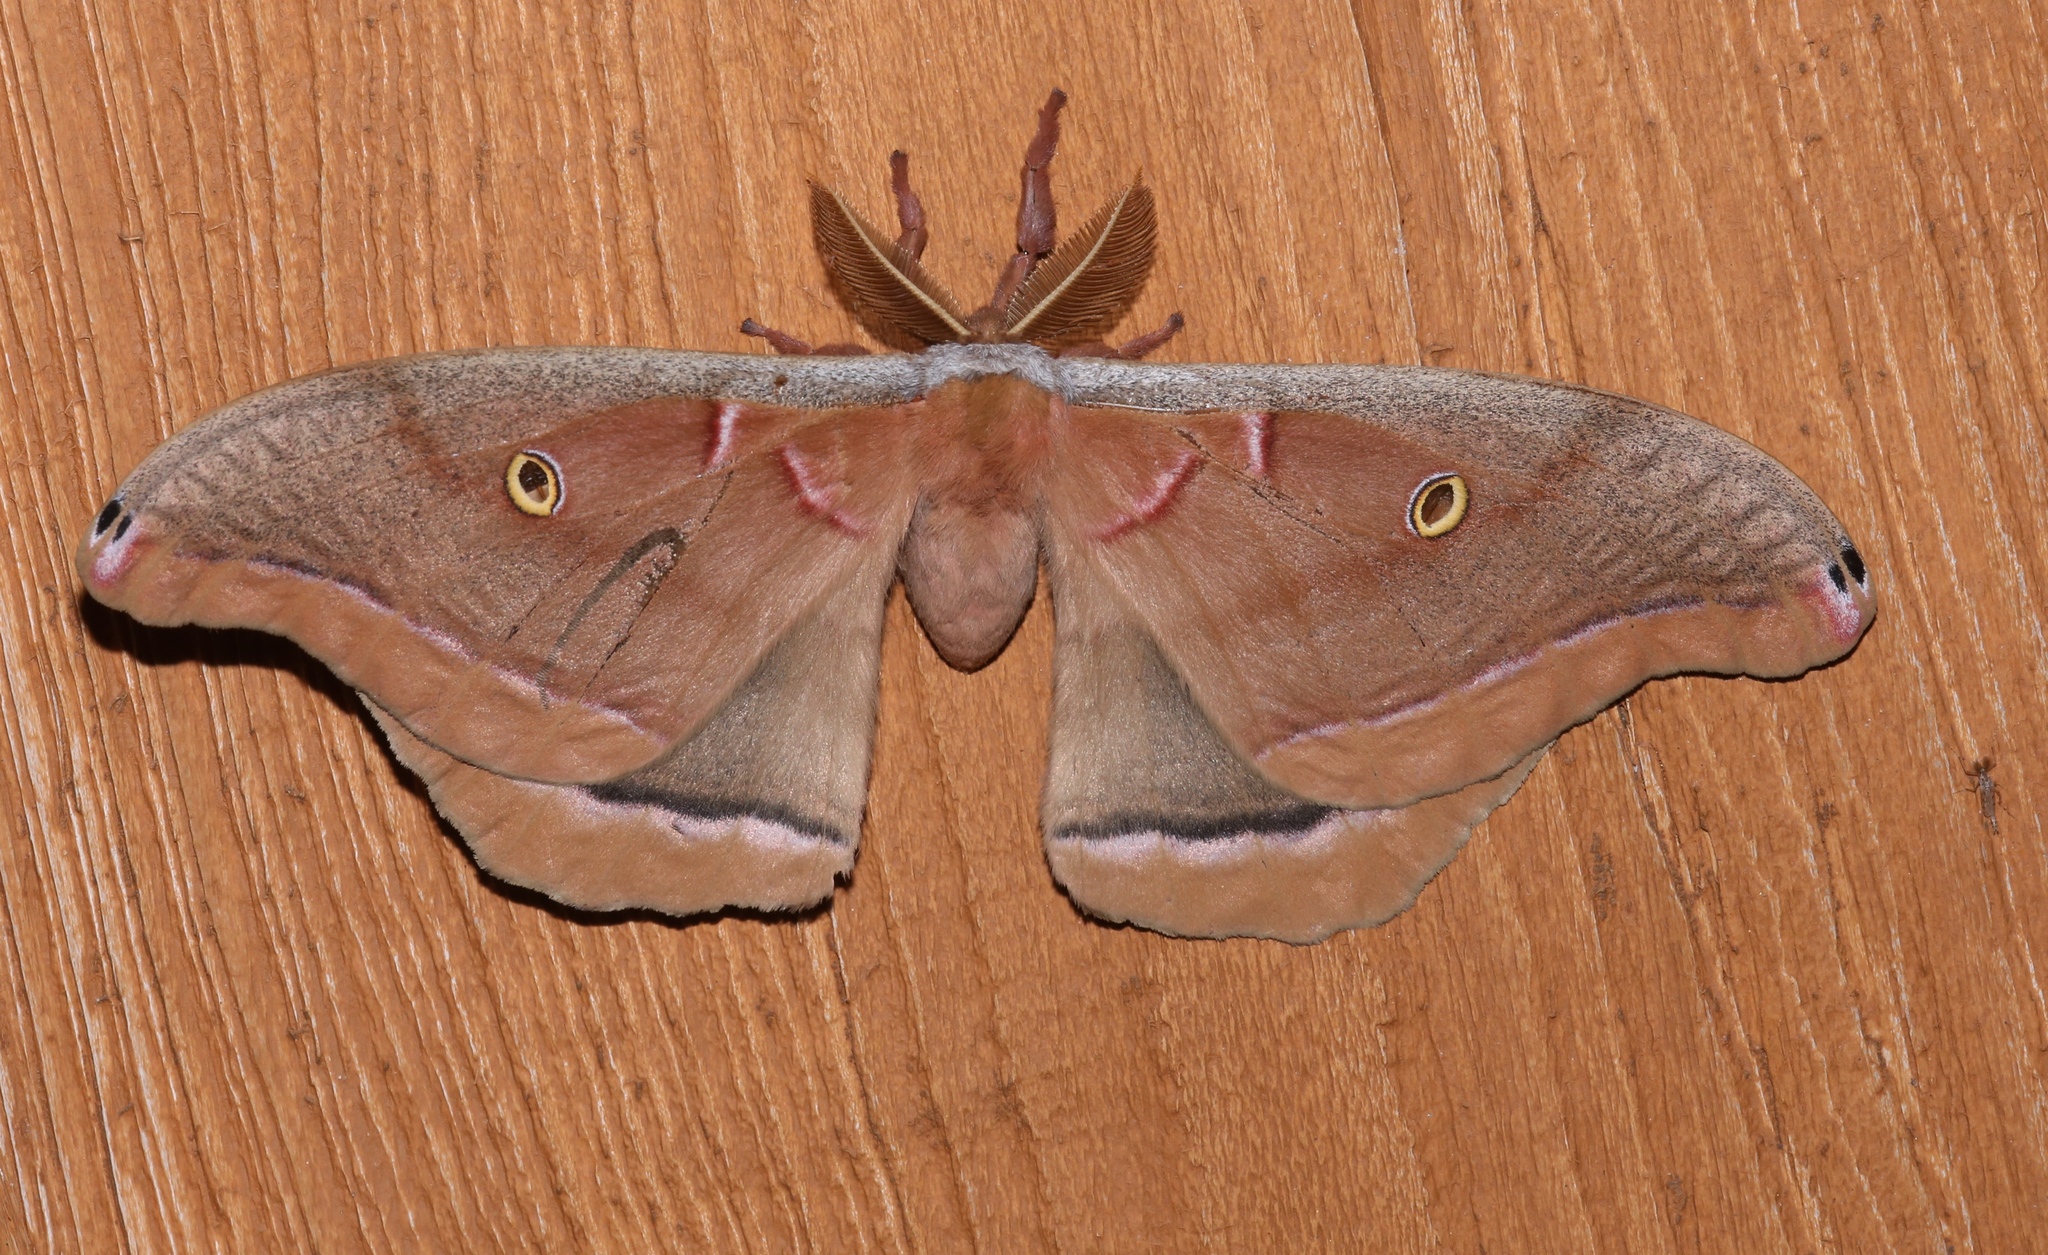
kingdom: Animalia
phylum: Arthropoda
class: Insecta
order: Lepidoptera
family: Saturniidae
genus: Antheraea
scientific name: Antheraea polyphemus
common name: Polyphemus moth
